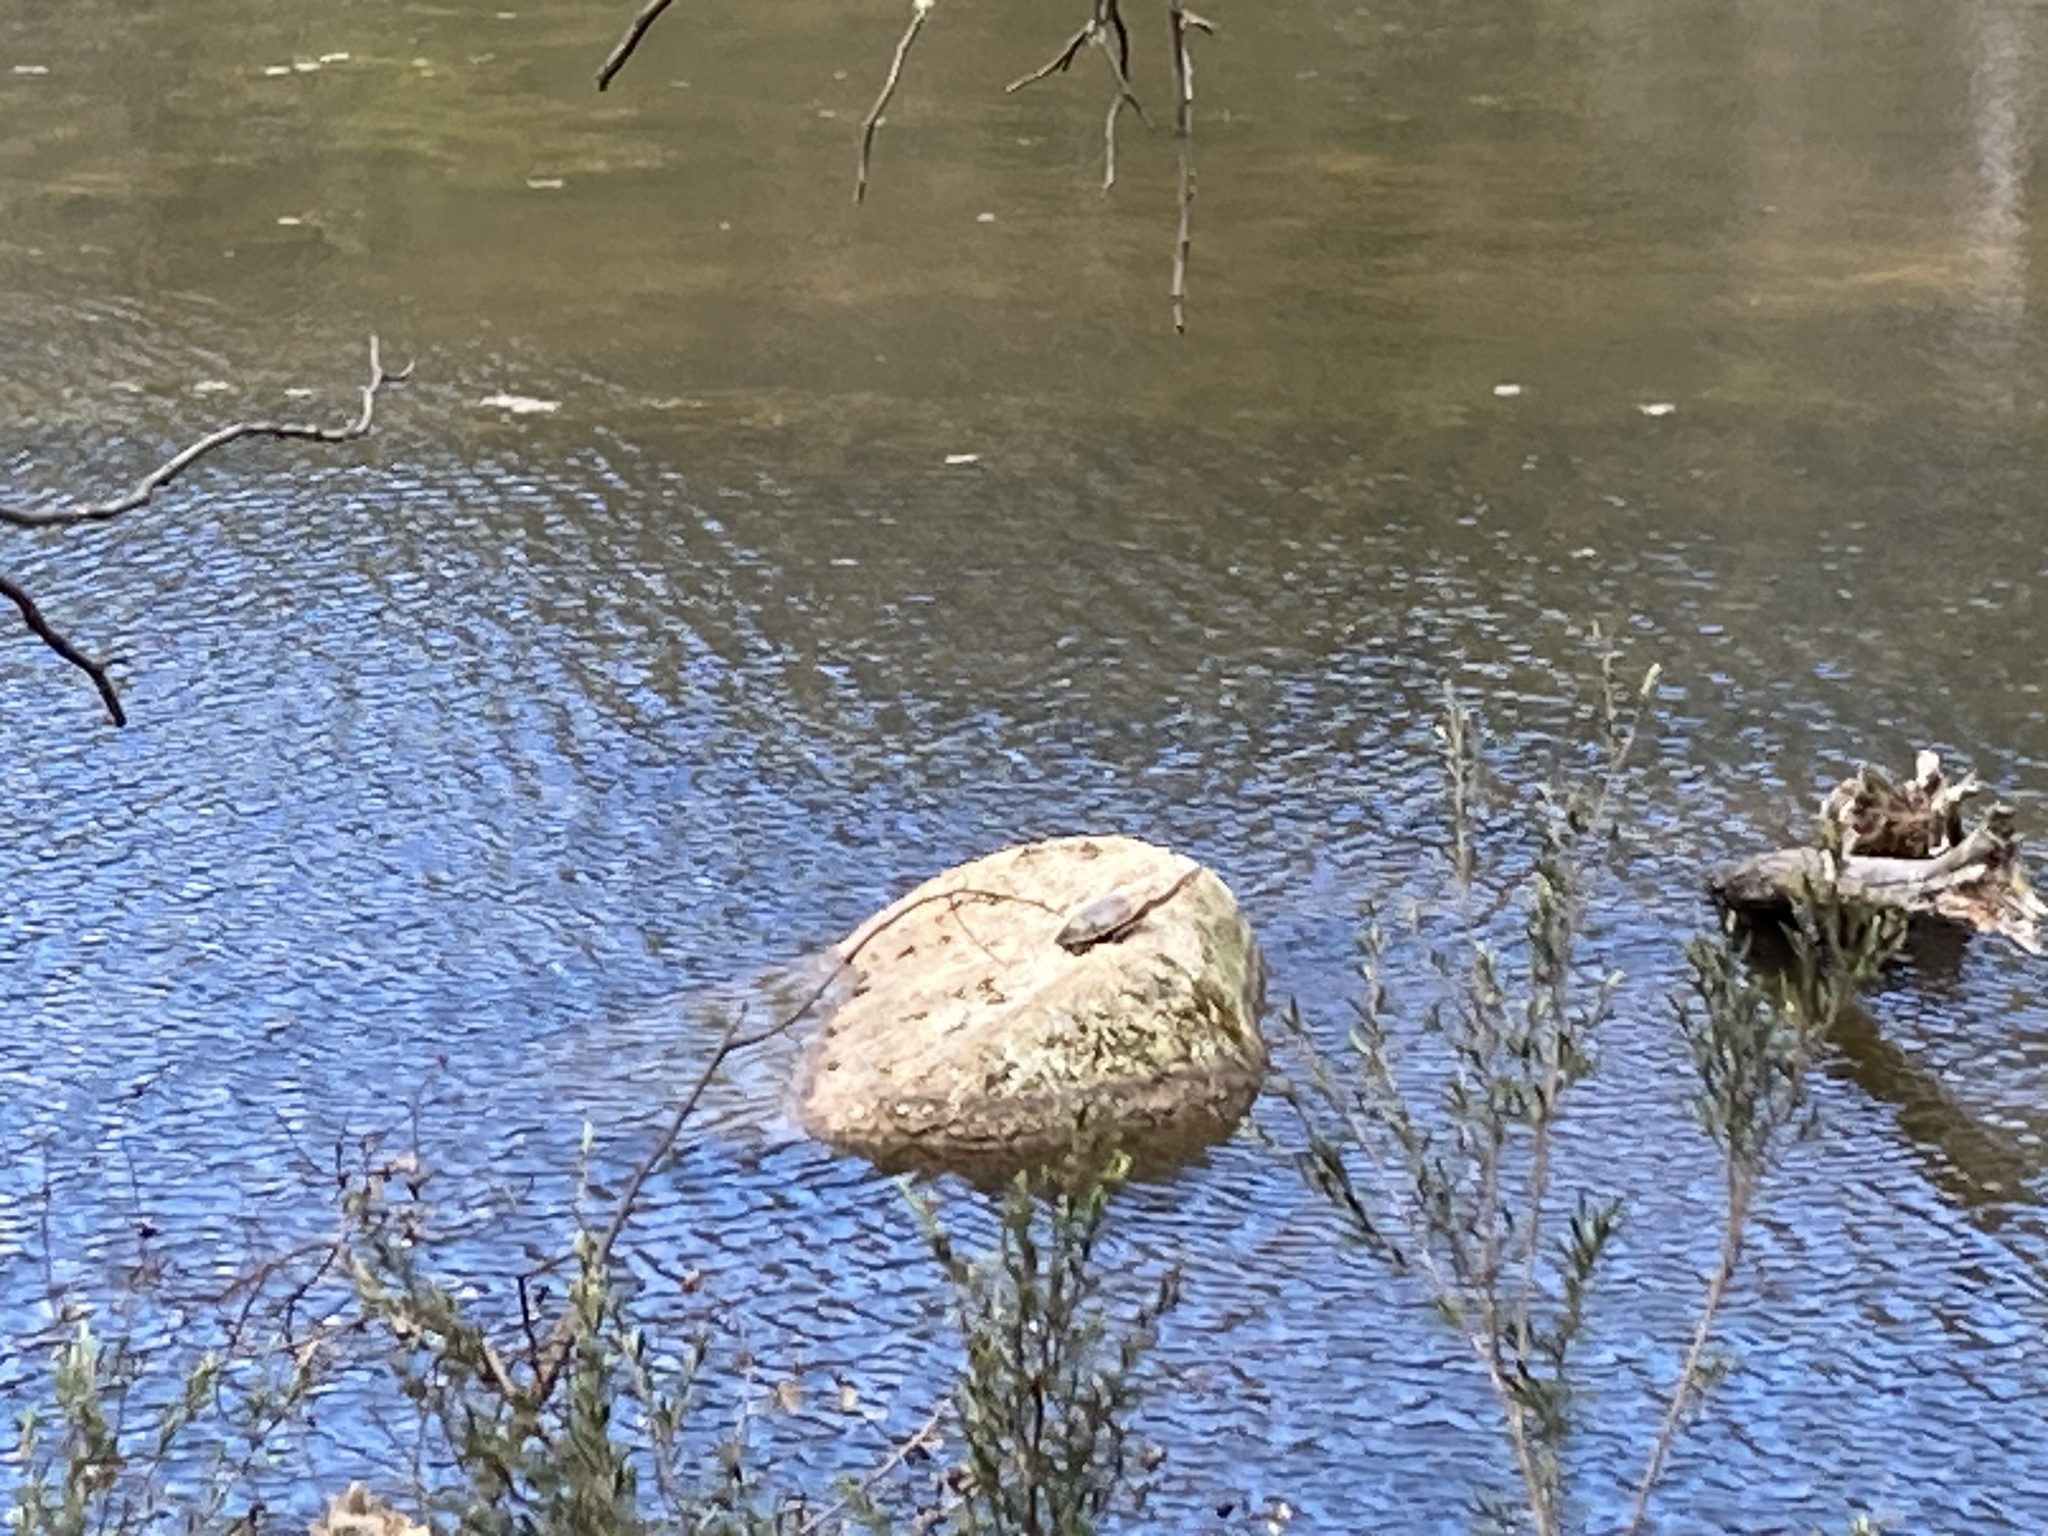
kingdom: Animalia
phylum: Chordata
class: Testudines
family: Chelidae
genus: Chelodina
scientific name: Chelodina longicollis
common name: Eastern snake-necked turtle
